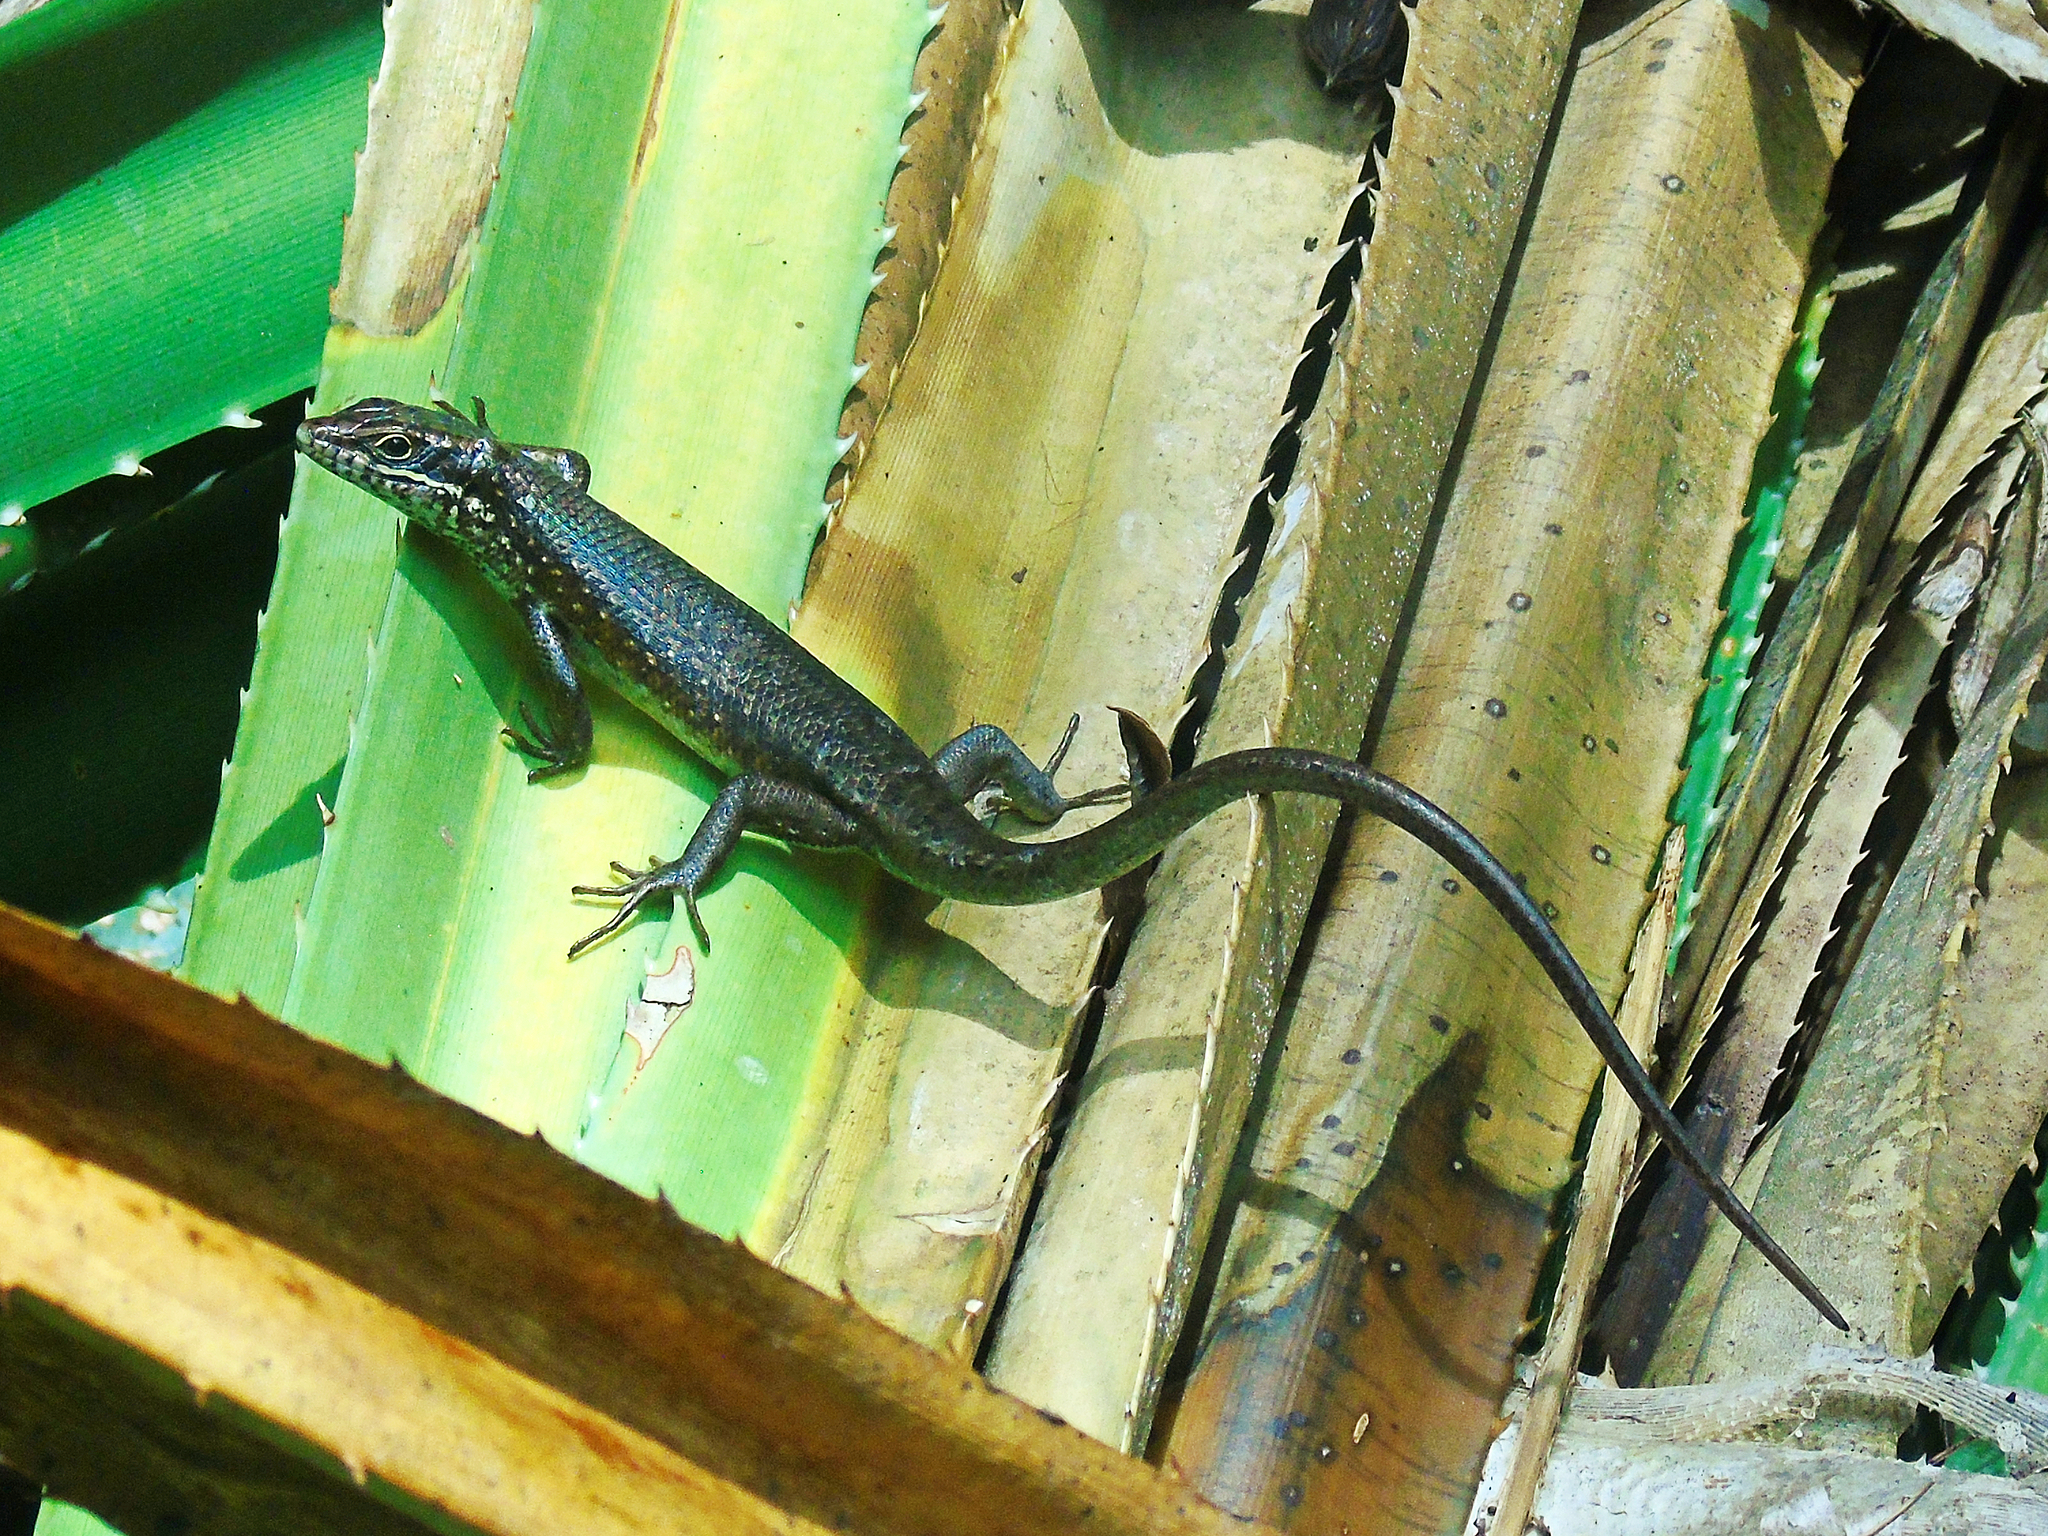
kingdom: Animalia
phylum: Chordata
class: Squamata
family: Scincidae
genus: Trachylepis
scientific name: Trachylepis maculilabris
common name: Speckle-lipped mabuya
